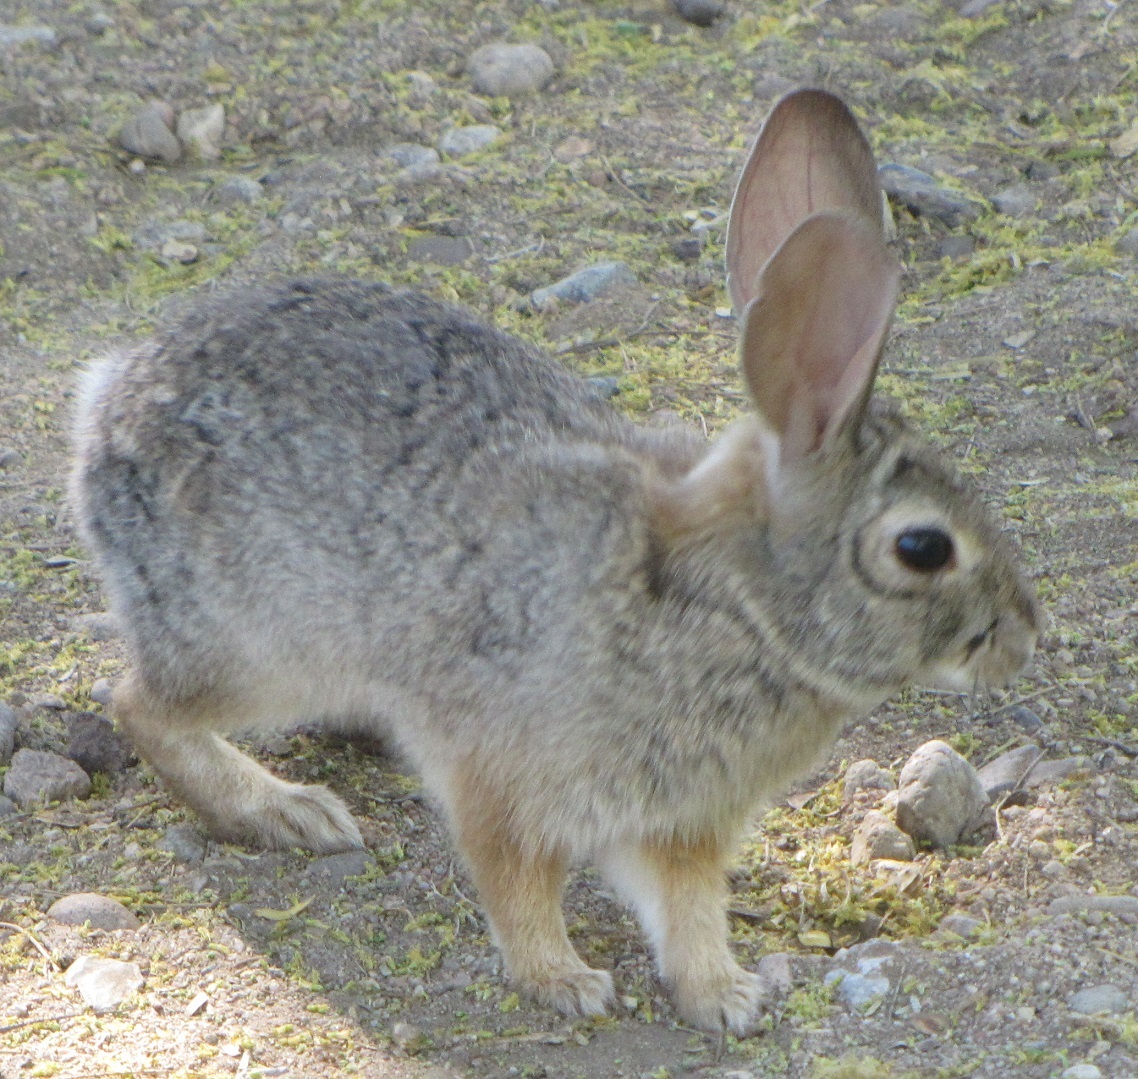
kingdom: Animalia
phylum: Chordata
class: Mammalia
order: Lagomorpha
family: Leporidae
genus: Sylvilagus
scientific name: Sylvilagus audubonii
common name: Desert cottontail
